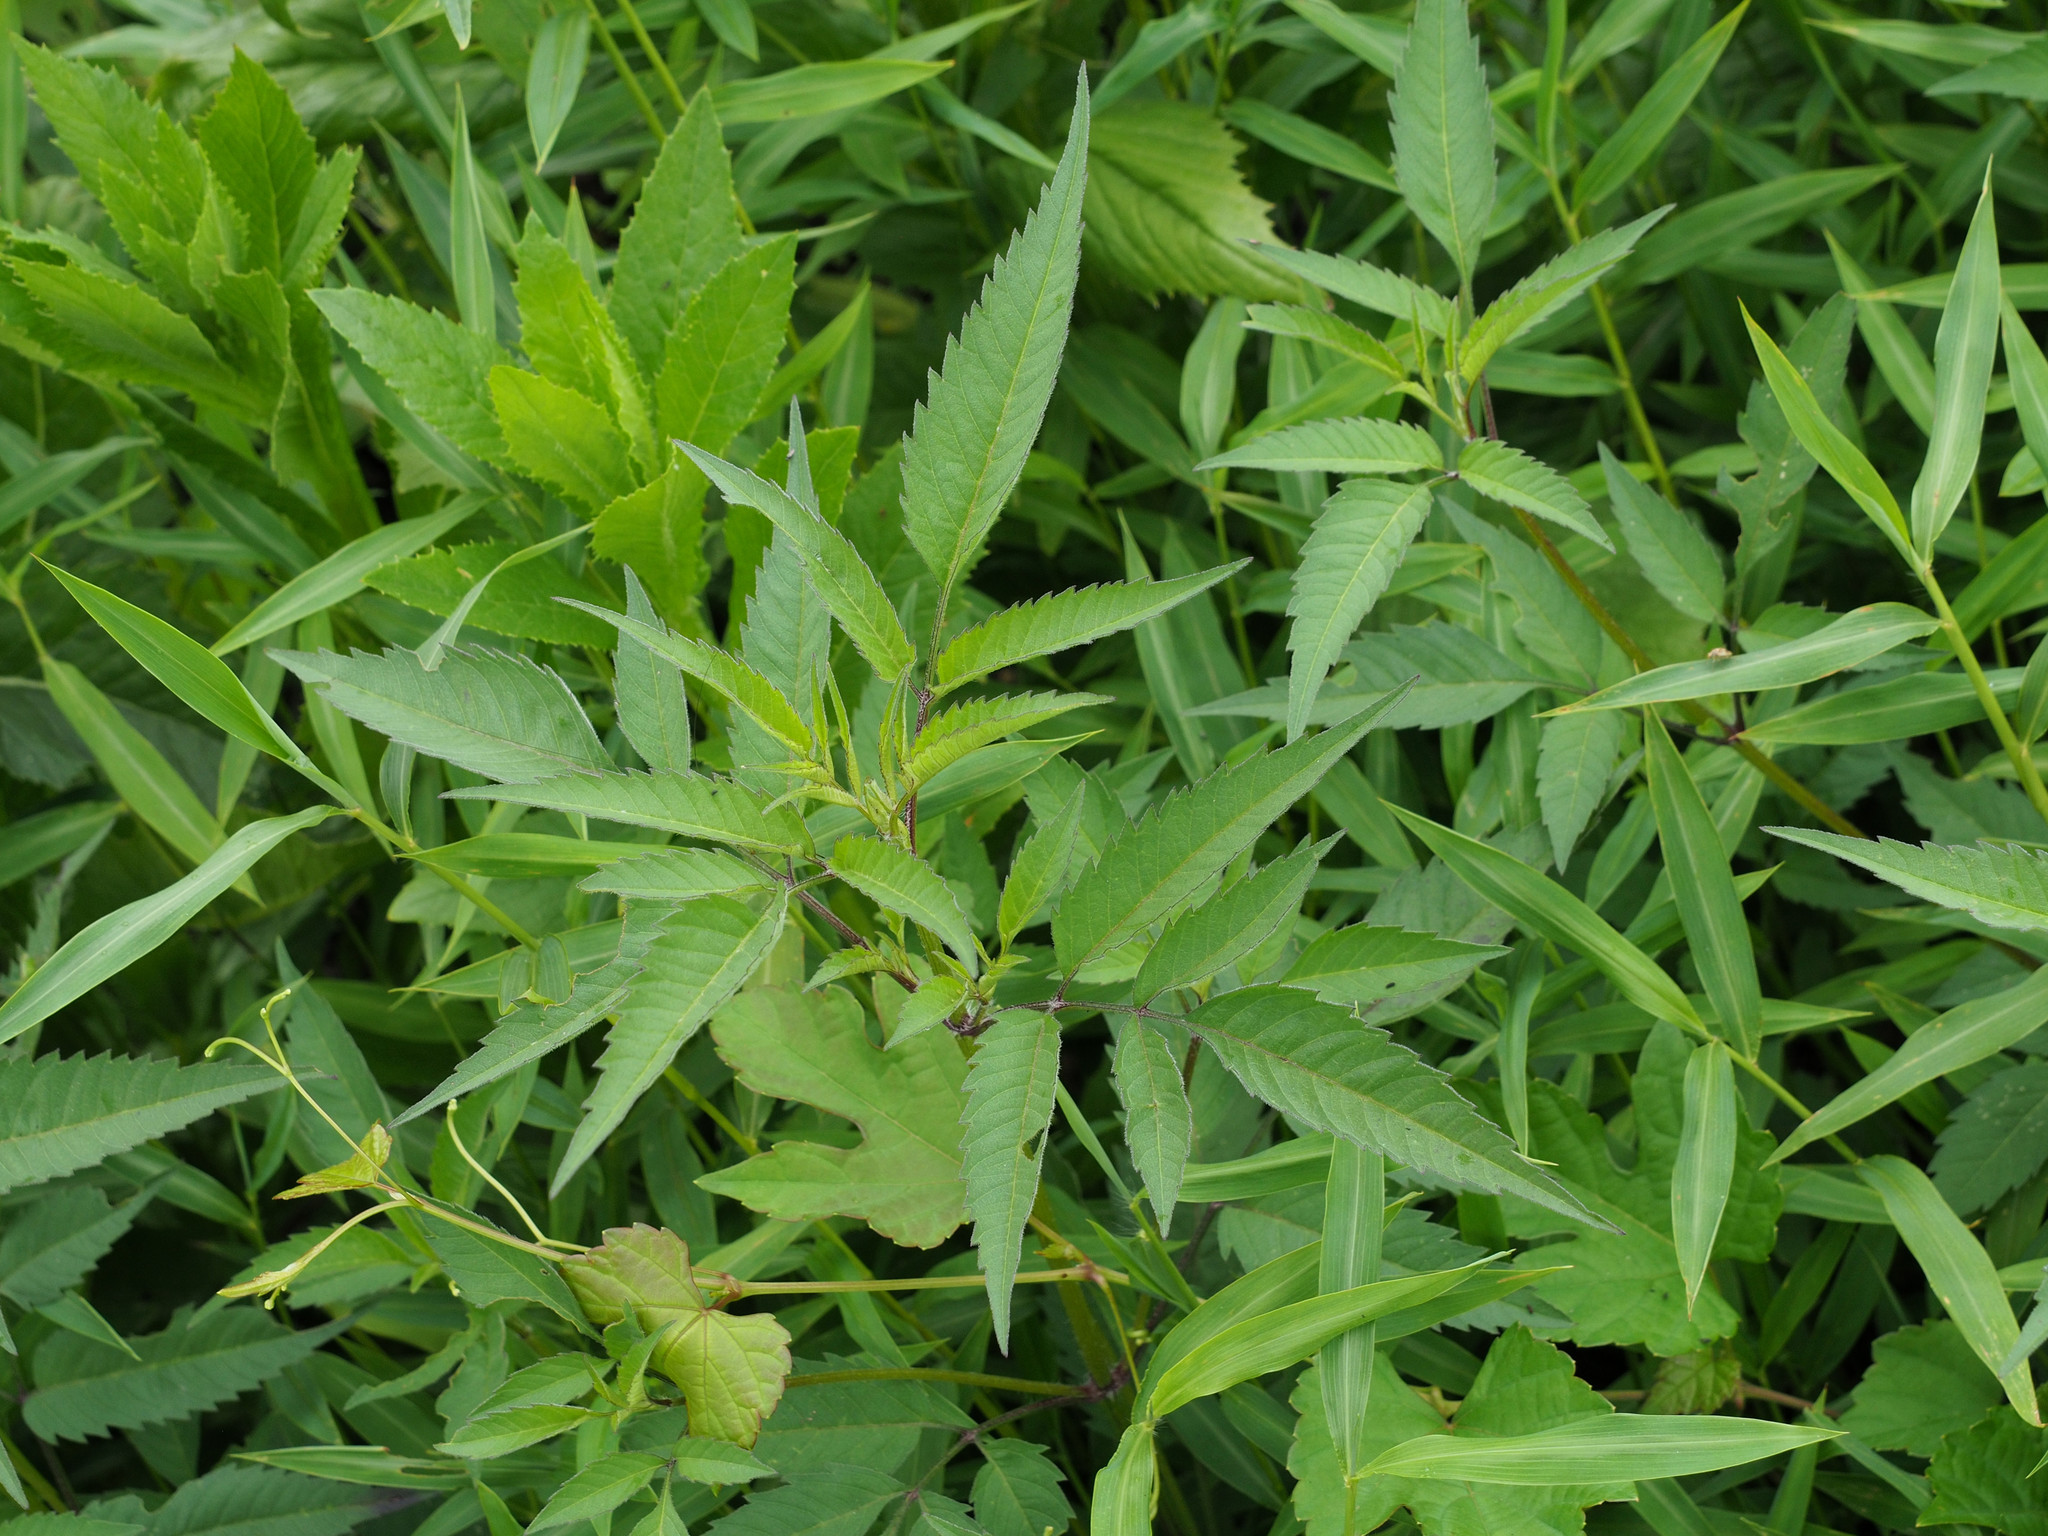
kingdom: Plantae
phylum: Tracheophyta
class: Magnoliopsida
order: Asterales
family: Asteraceae
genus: Bidens
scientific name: Bidens frondosa
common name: Beggarticks
